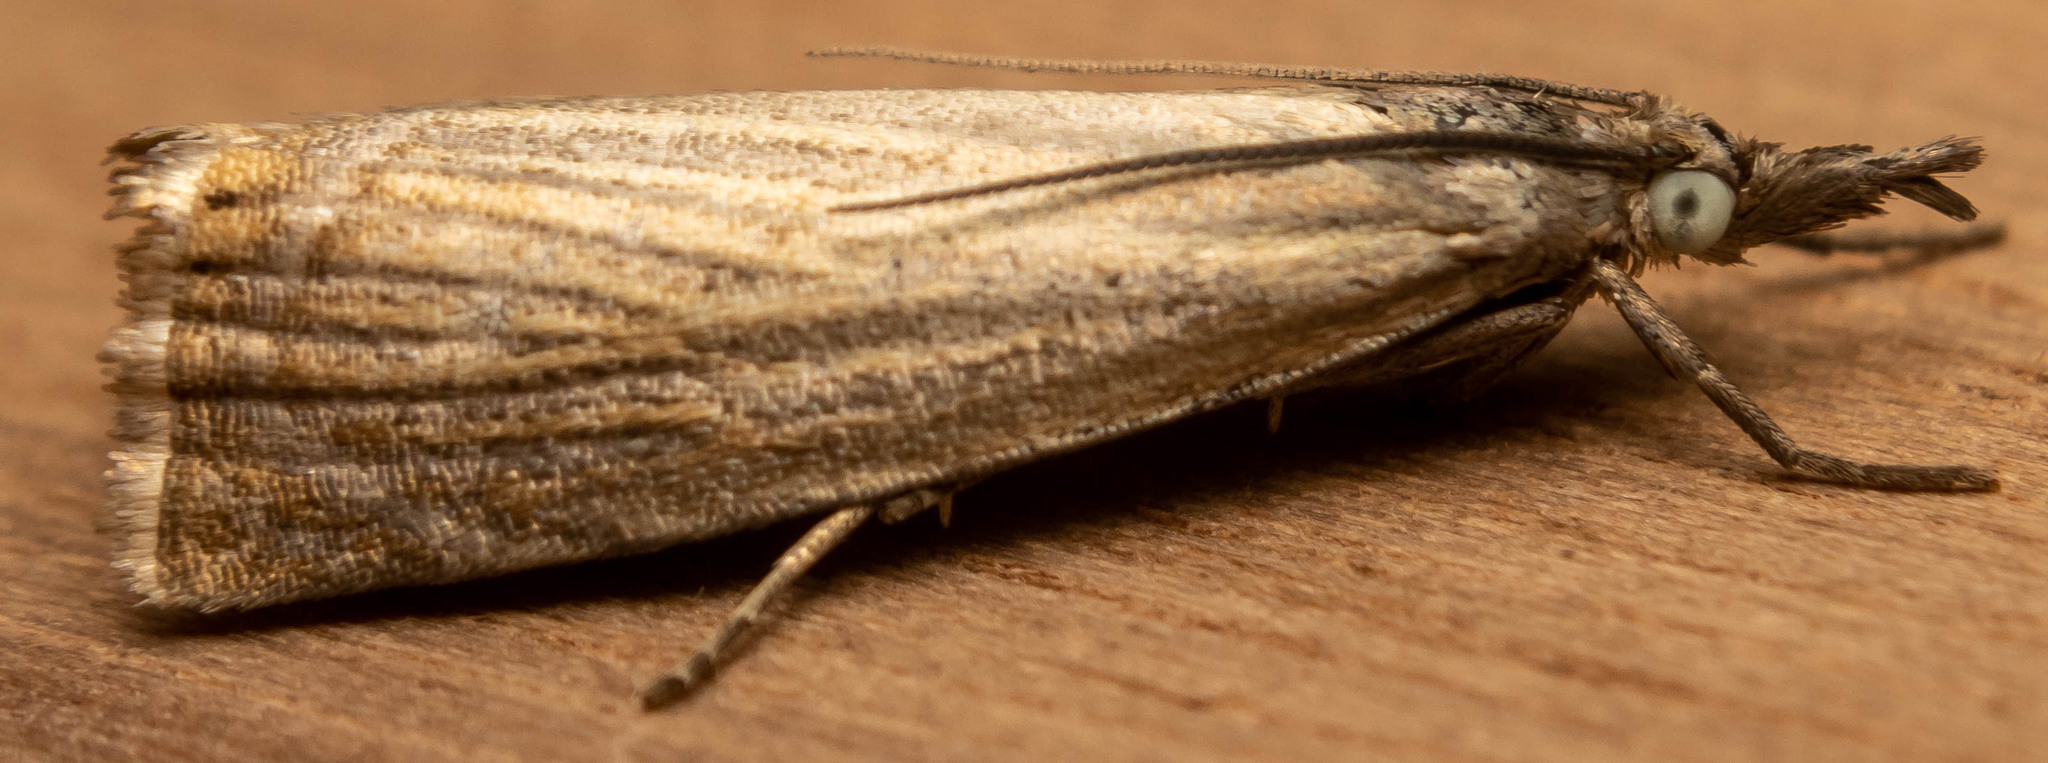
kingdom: Animalia
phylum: Arthropoda
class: Insecta
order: Lepidoptera
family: Crambidae
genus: Chrysoteuchia
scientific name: Chrysoteuchia culmella
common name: Garden grass-veneer
